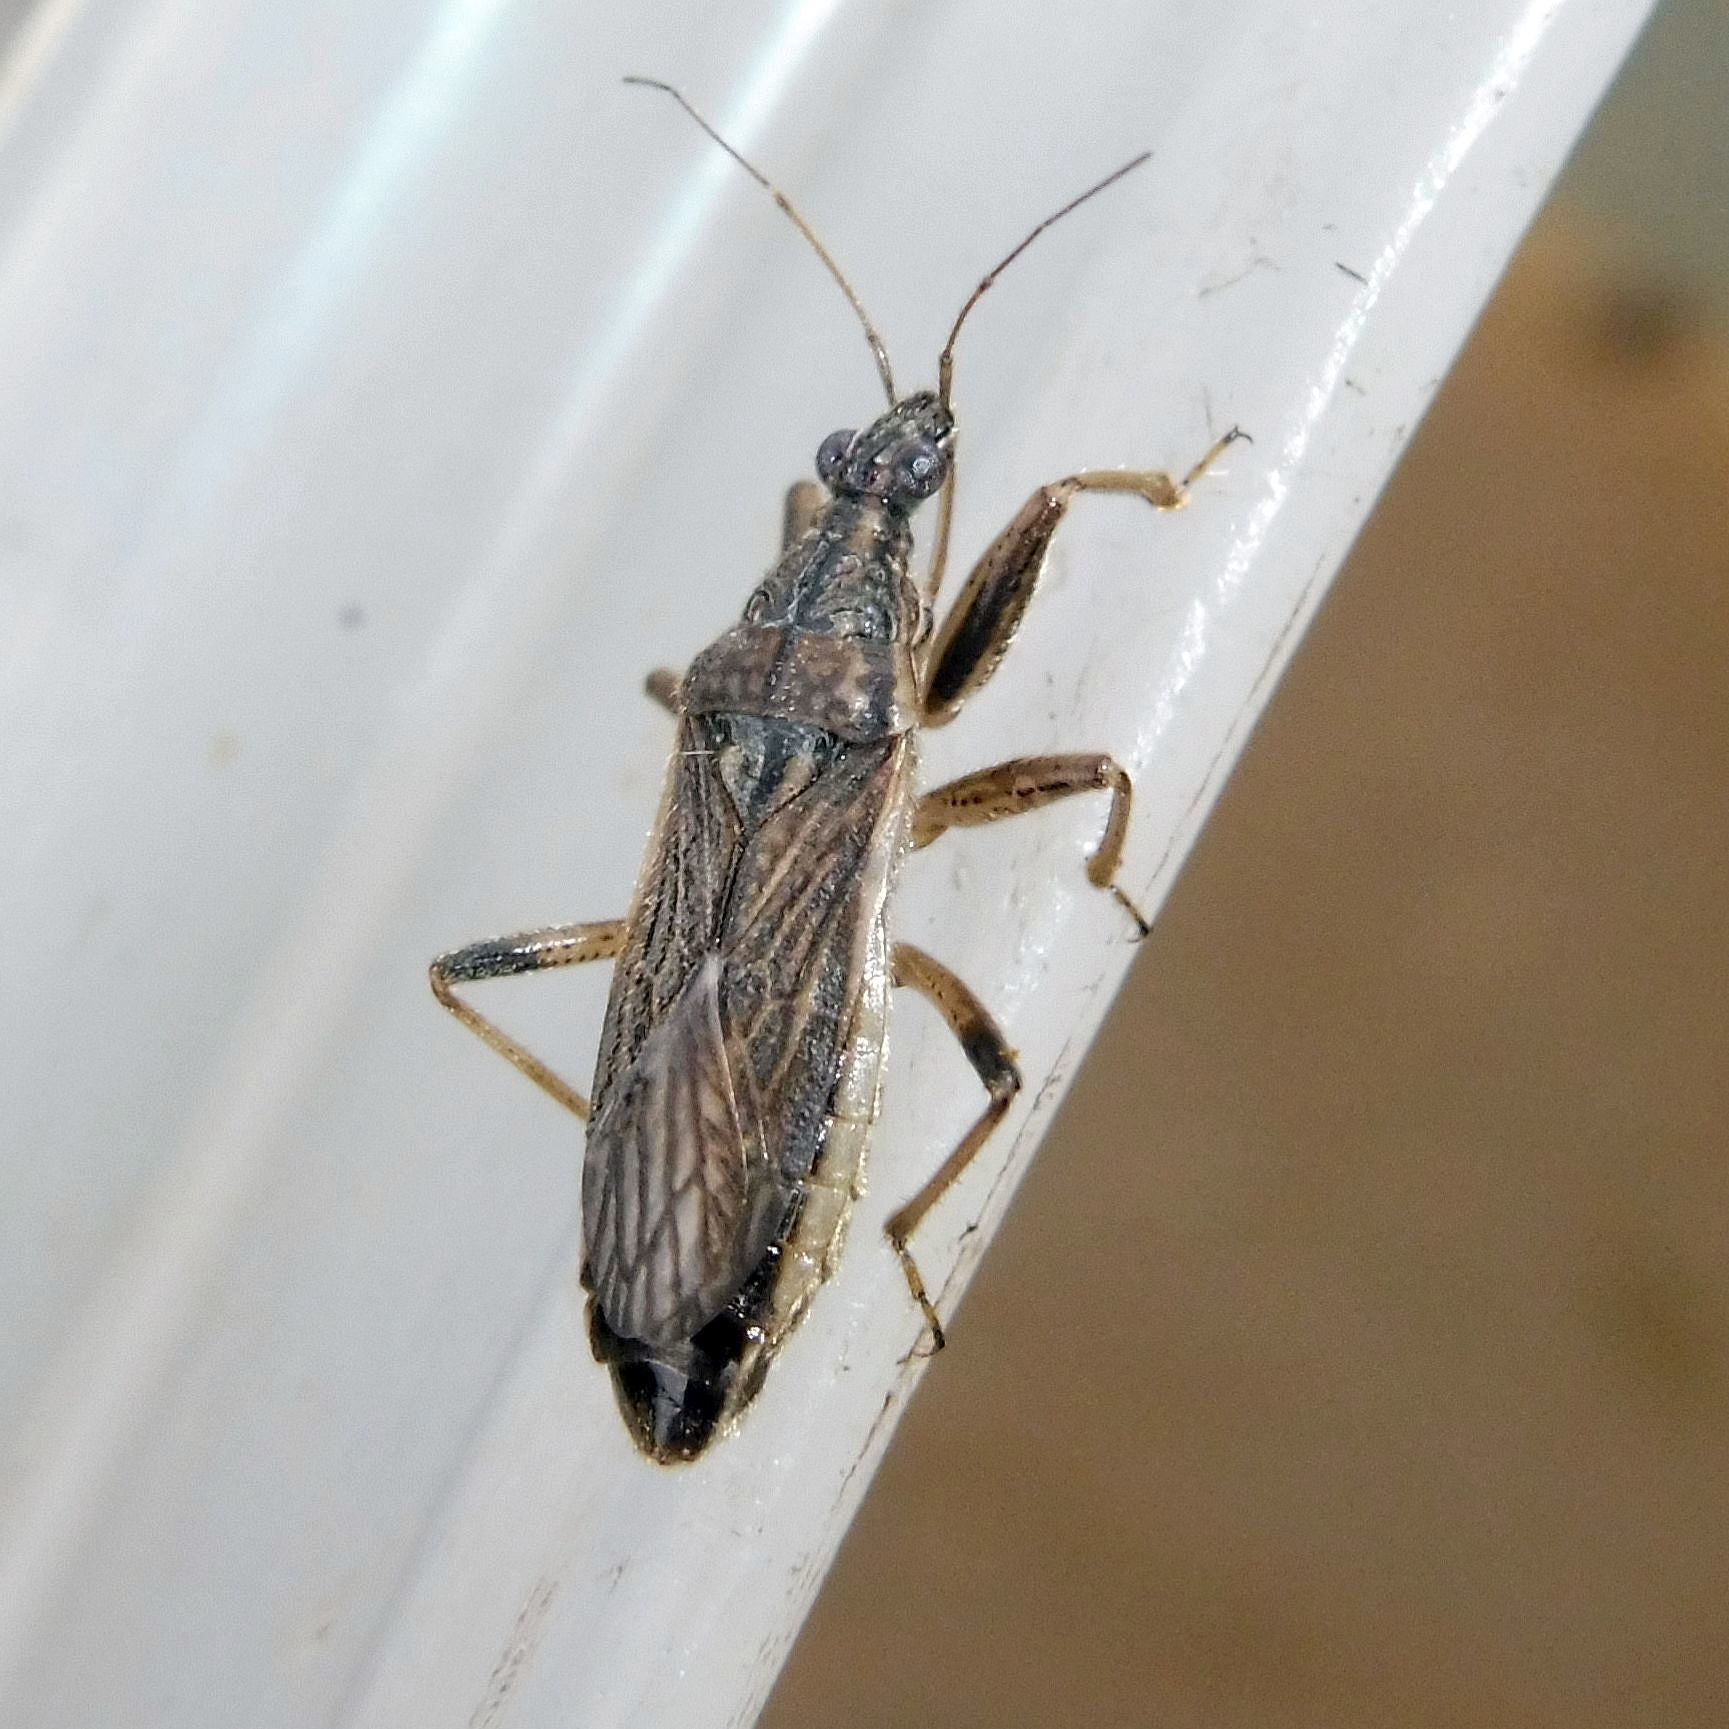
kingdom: Animalia
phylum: Arthropoda
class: Insecta
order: Hemiptera
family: Nabidae
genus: Himacerus
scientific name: Himacerus major
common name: Damsel bug
